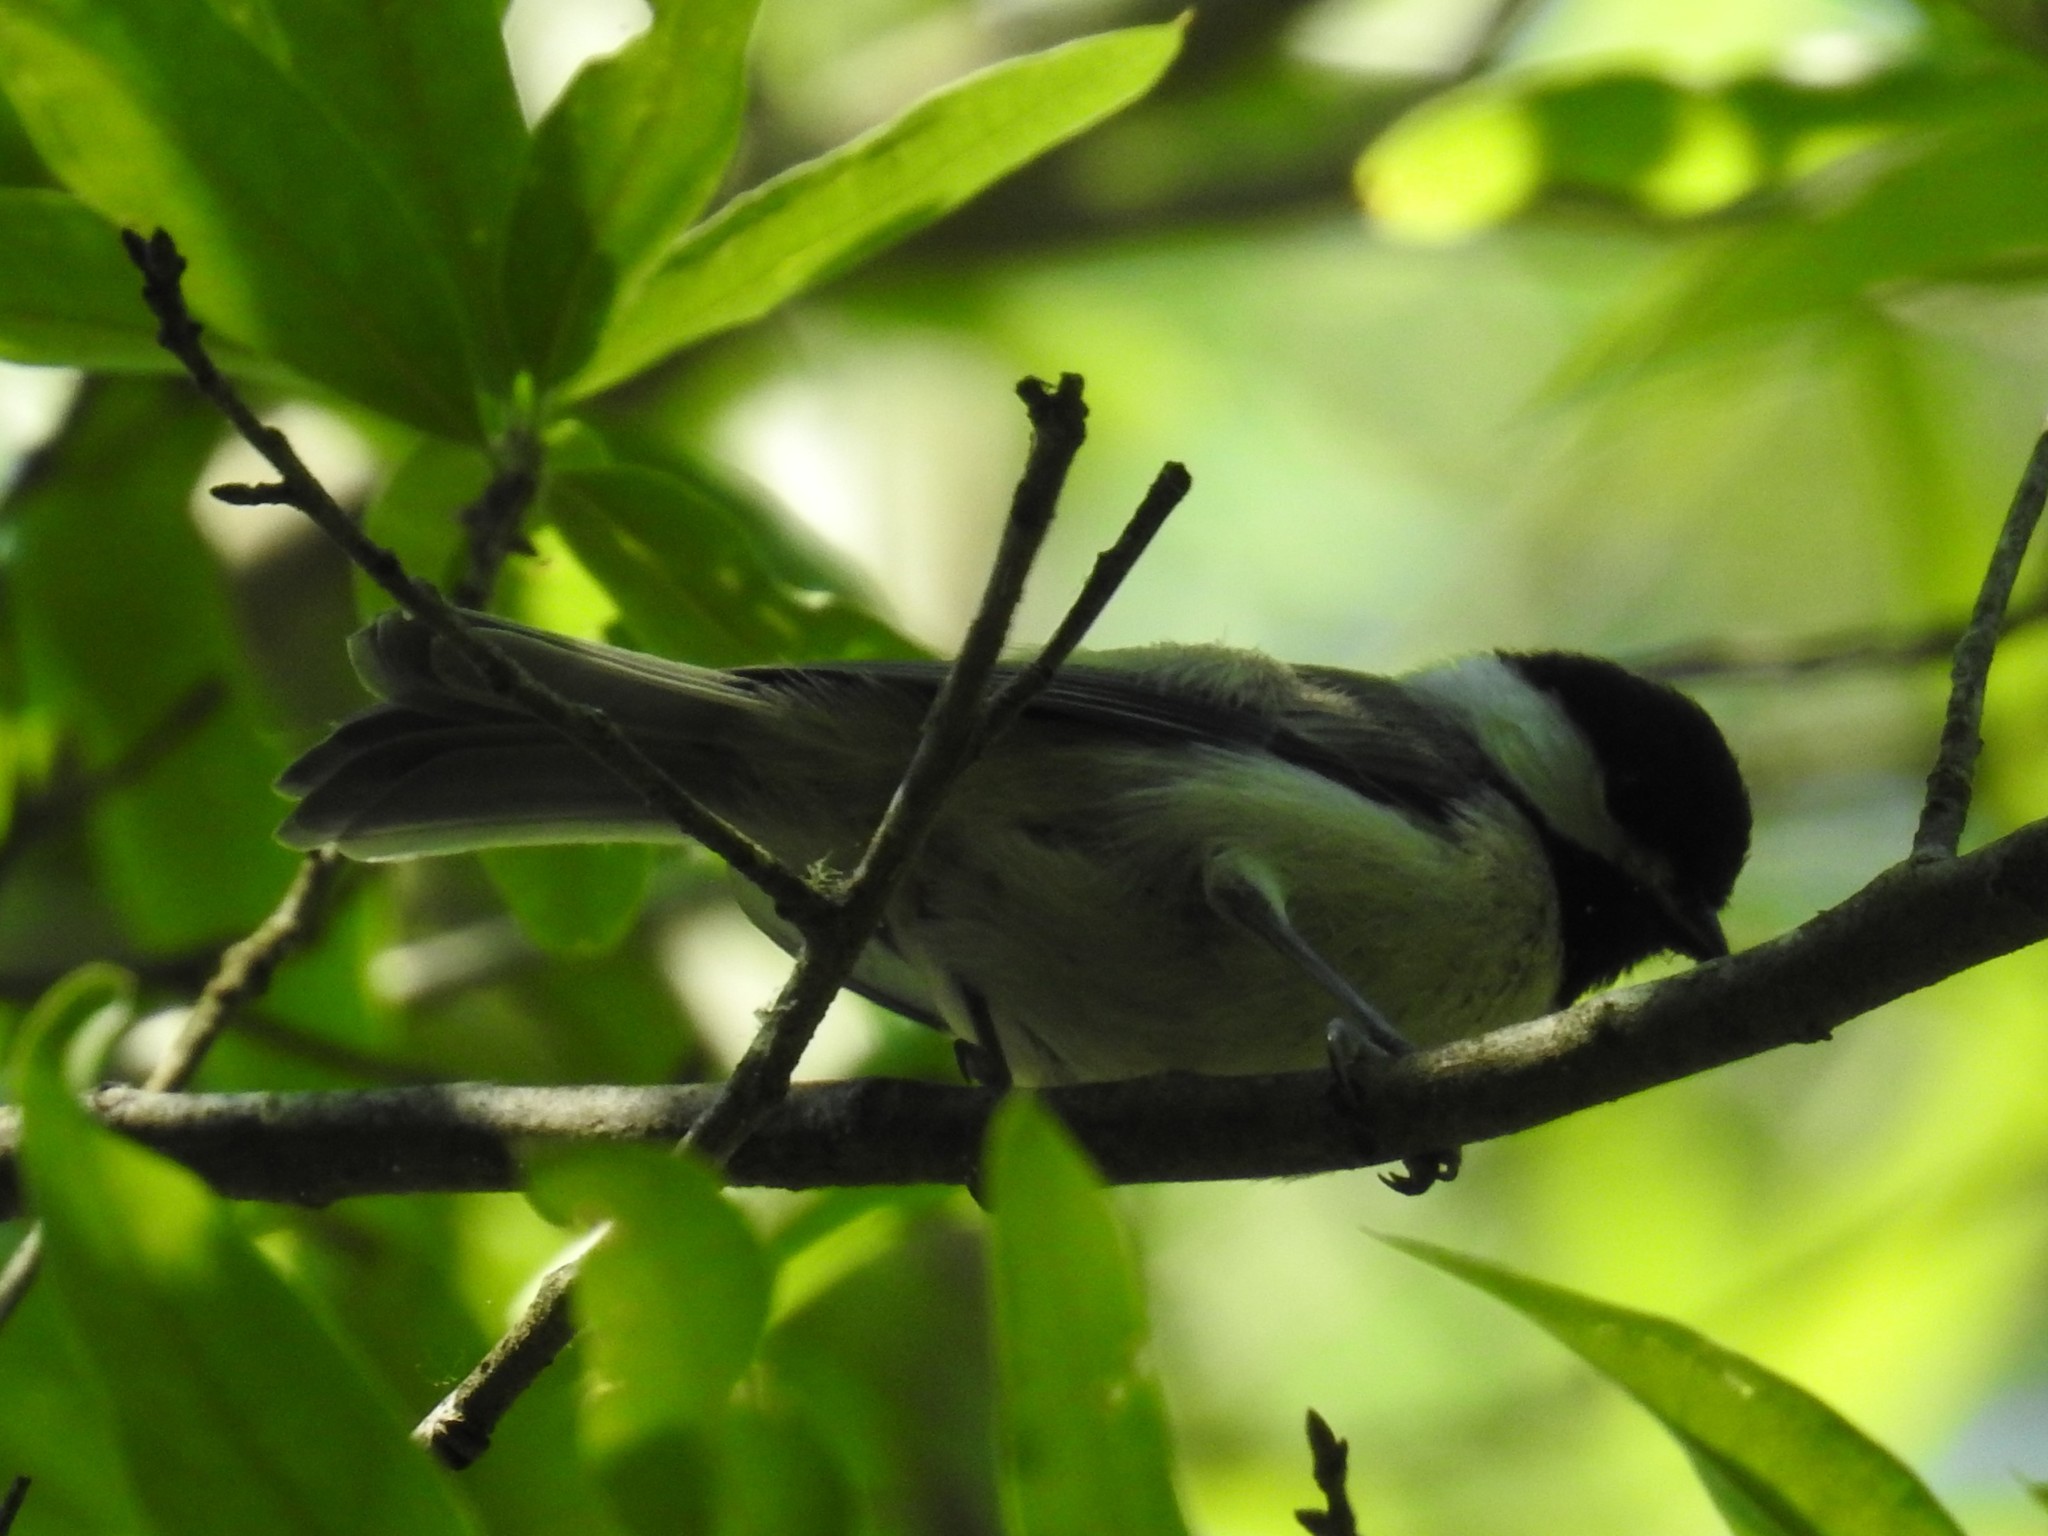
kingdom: Animalia
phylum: Chordata
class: Aves
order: Passeriformes
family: Paridae
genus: Poecile
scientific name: Poecile carolinensis
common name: Carolina chickadee
